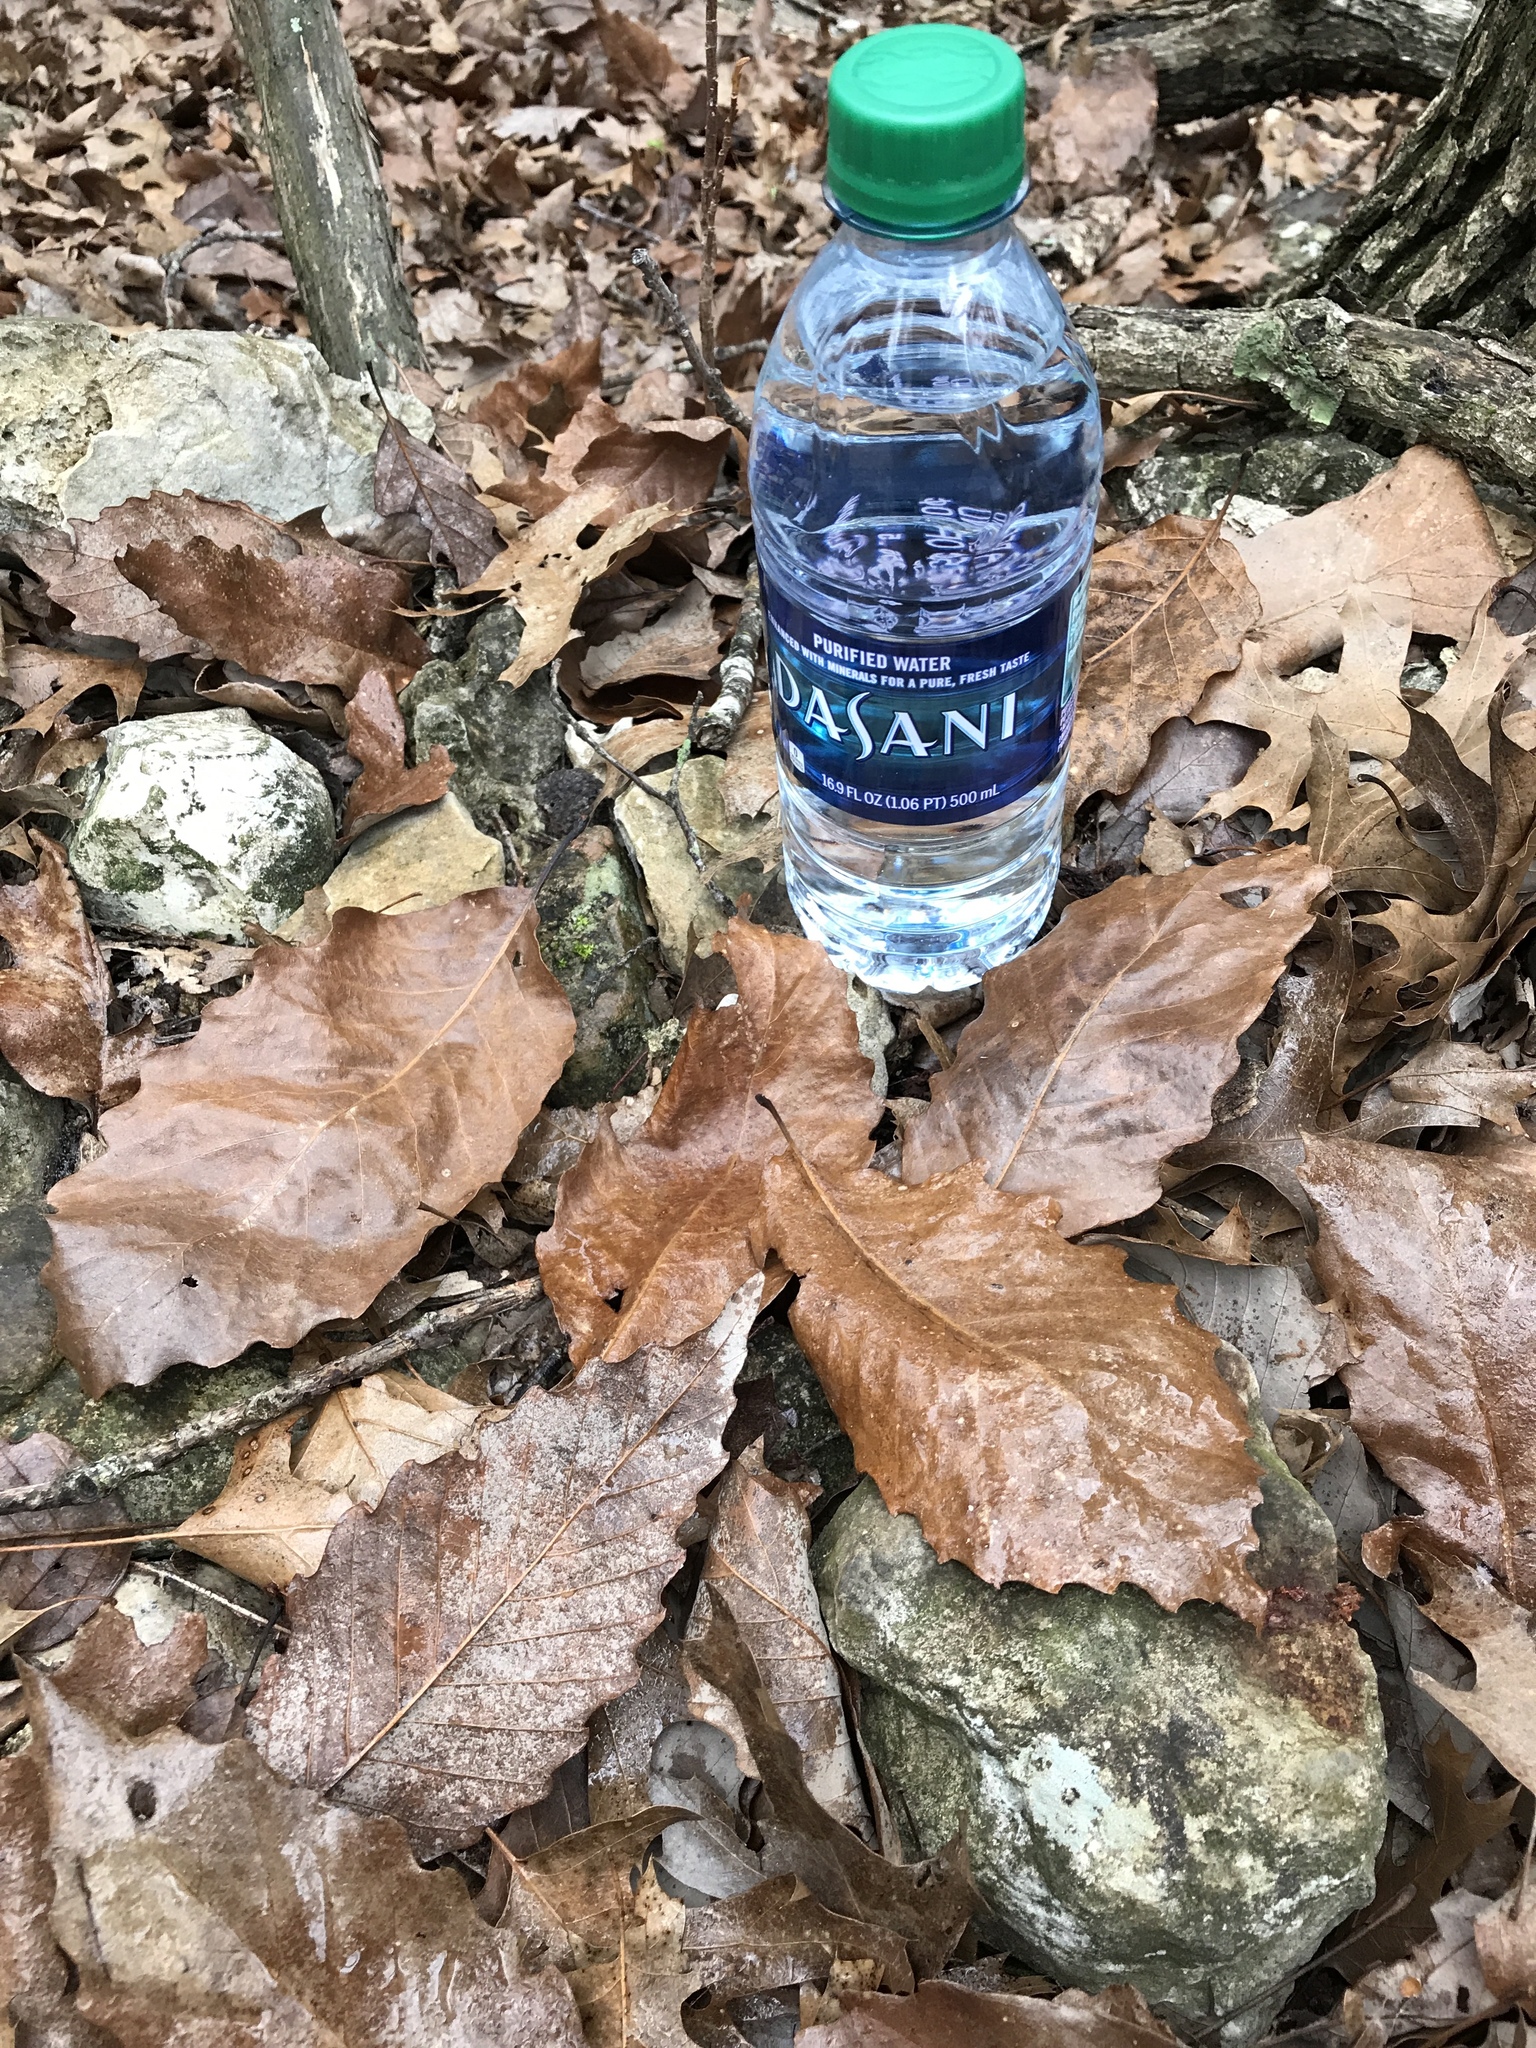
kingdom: Plantae
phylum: Tracheophyta
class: Magnoliopsida
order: Fagales
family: Fagaceae
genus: Quercus
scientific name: Quercus muehlenbergii
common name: Chinkapin oak
